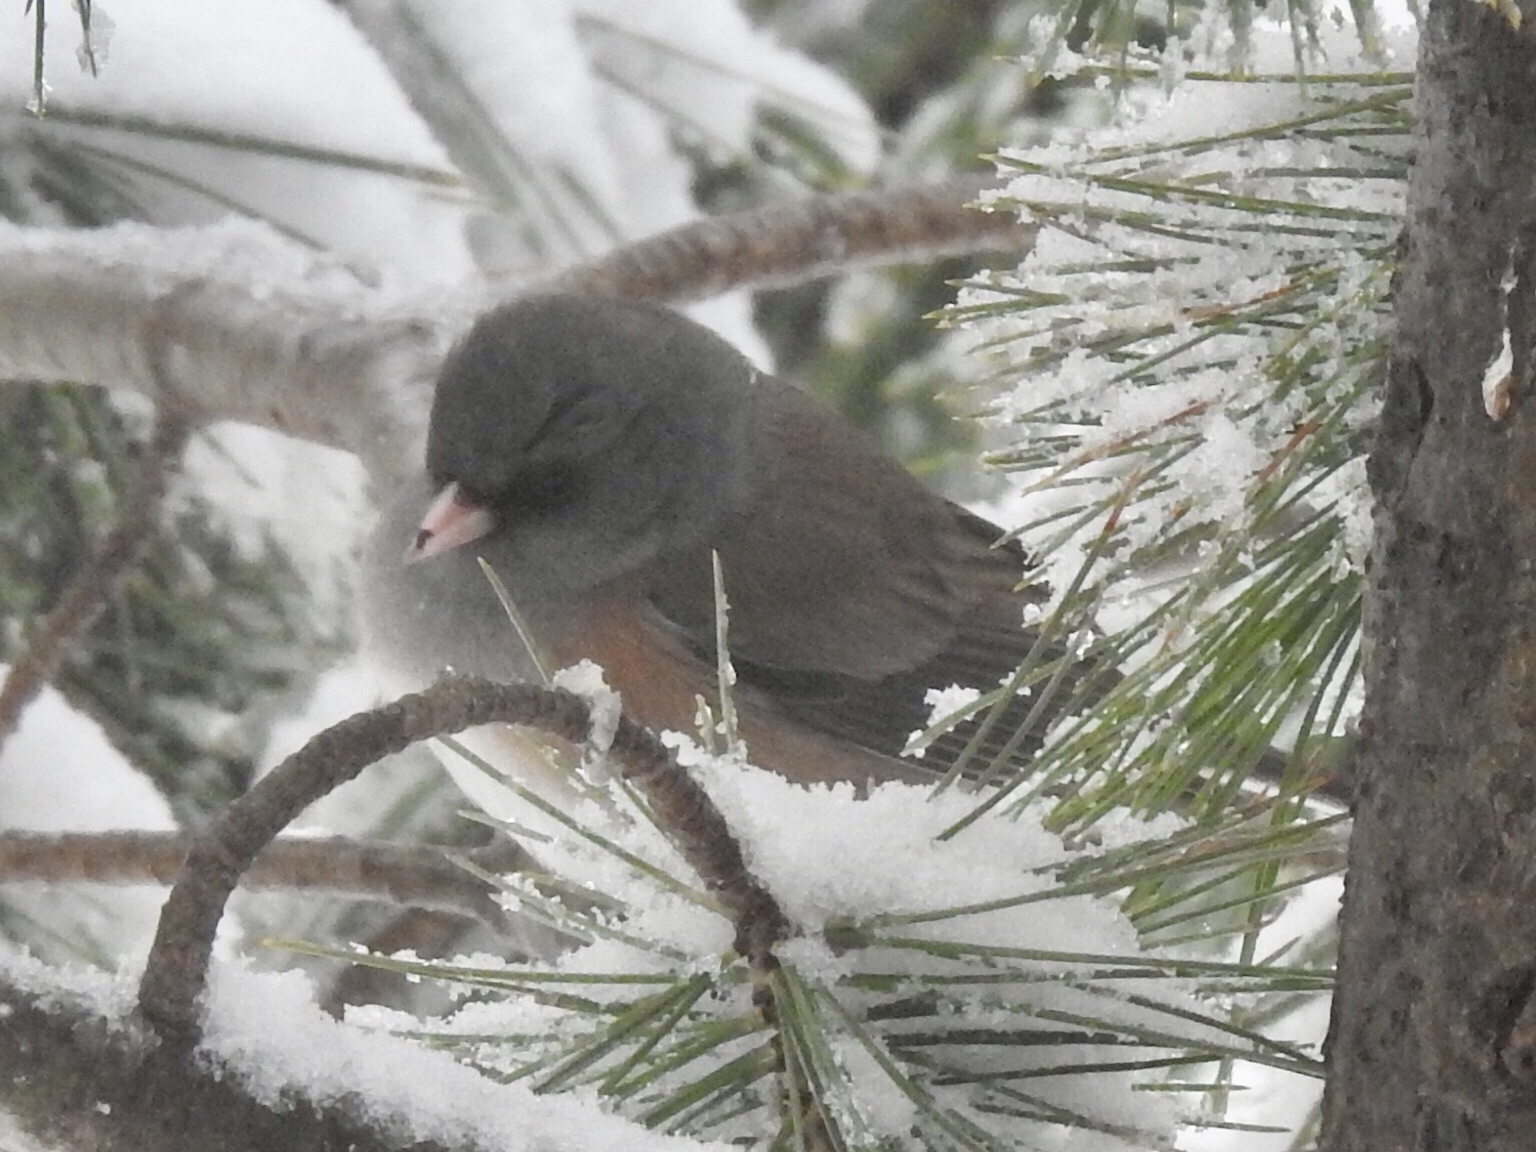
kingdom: Animalia
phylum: Chordata
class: Aves
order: Passeriformes
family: Passerellidae
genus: Junco
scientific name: Junco hyemalis
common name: Dark-eyed junco
